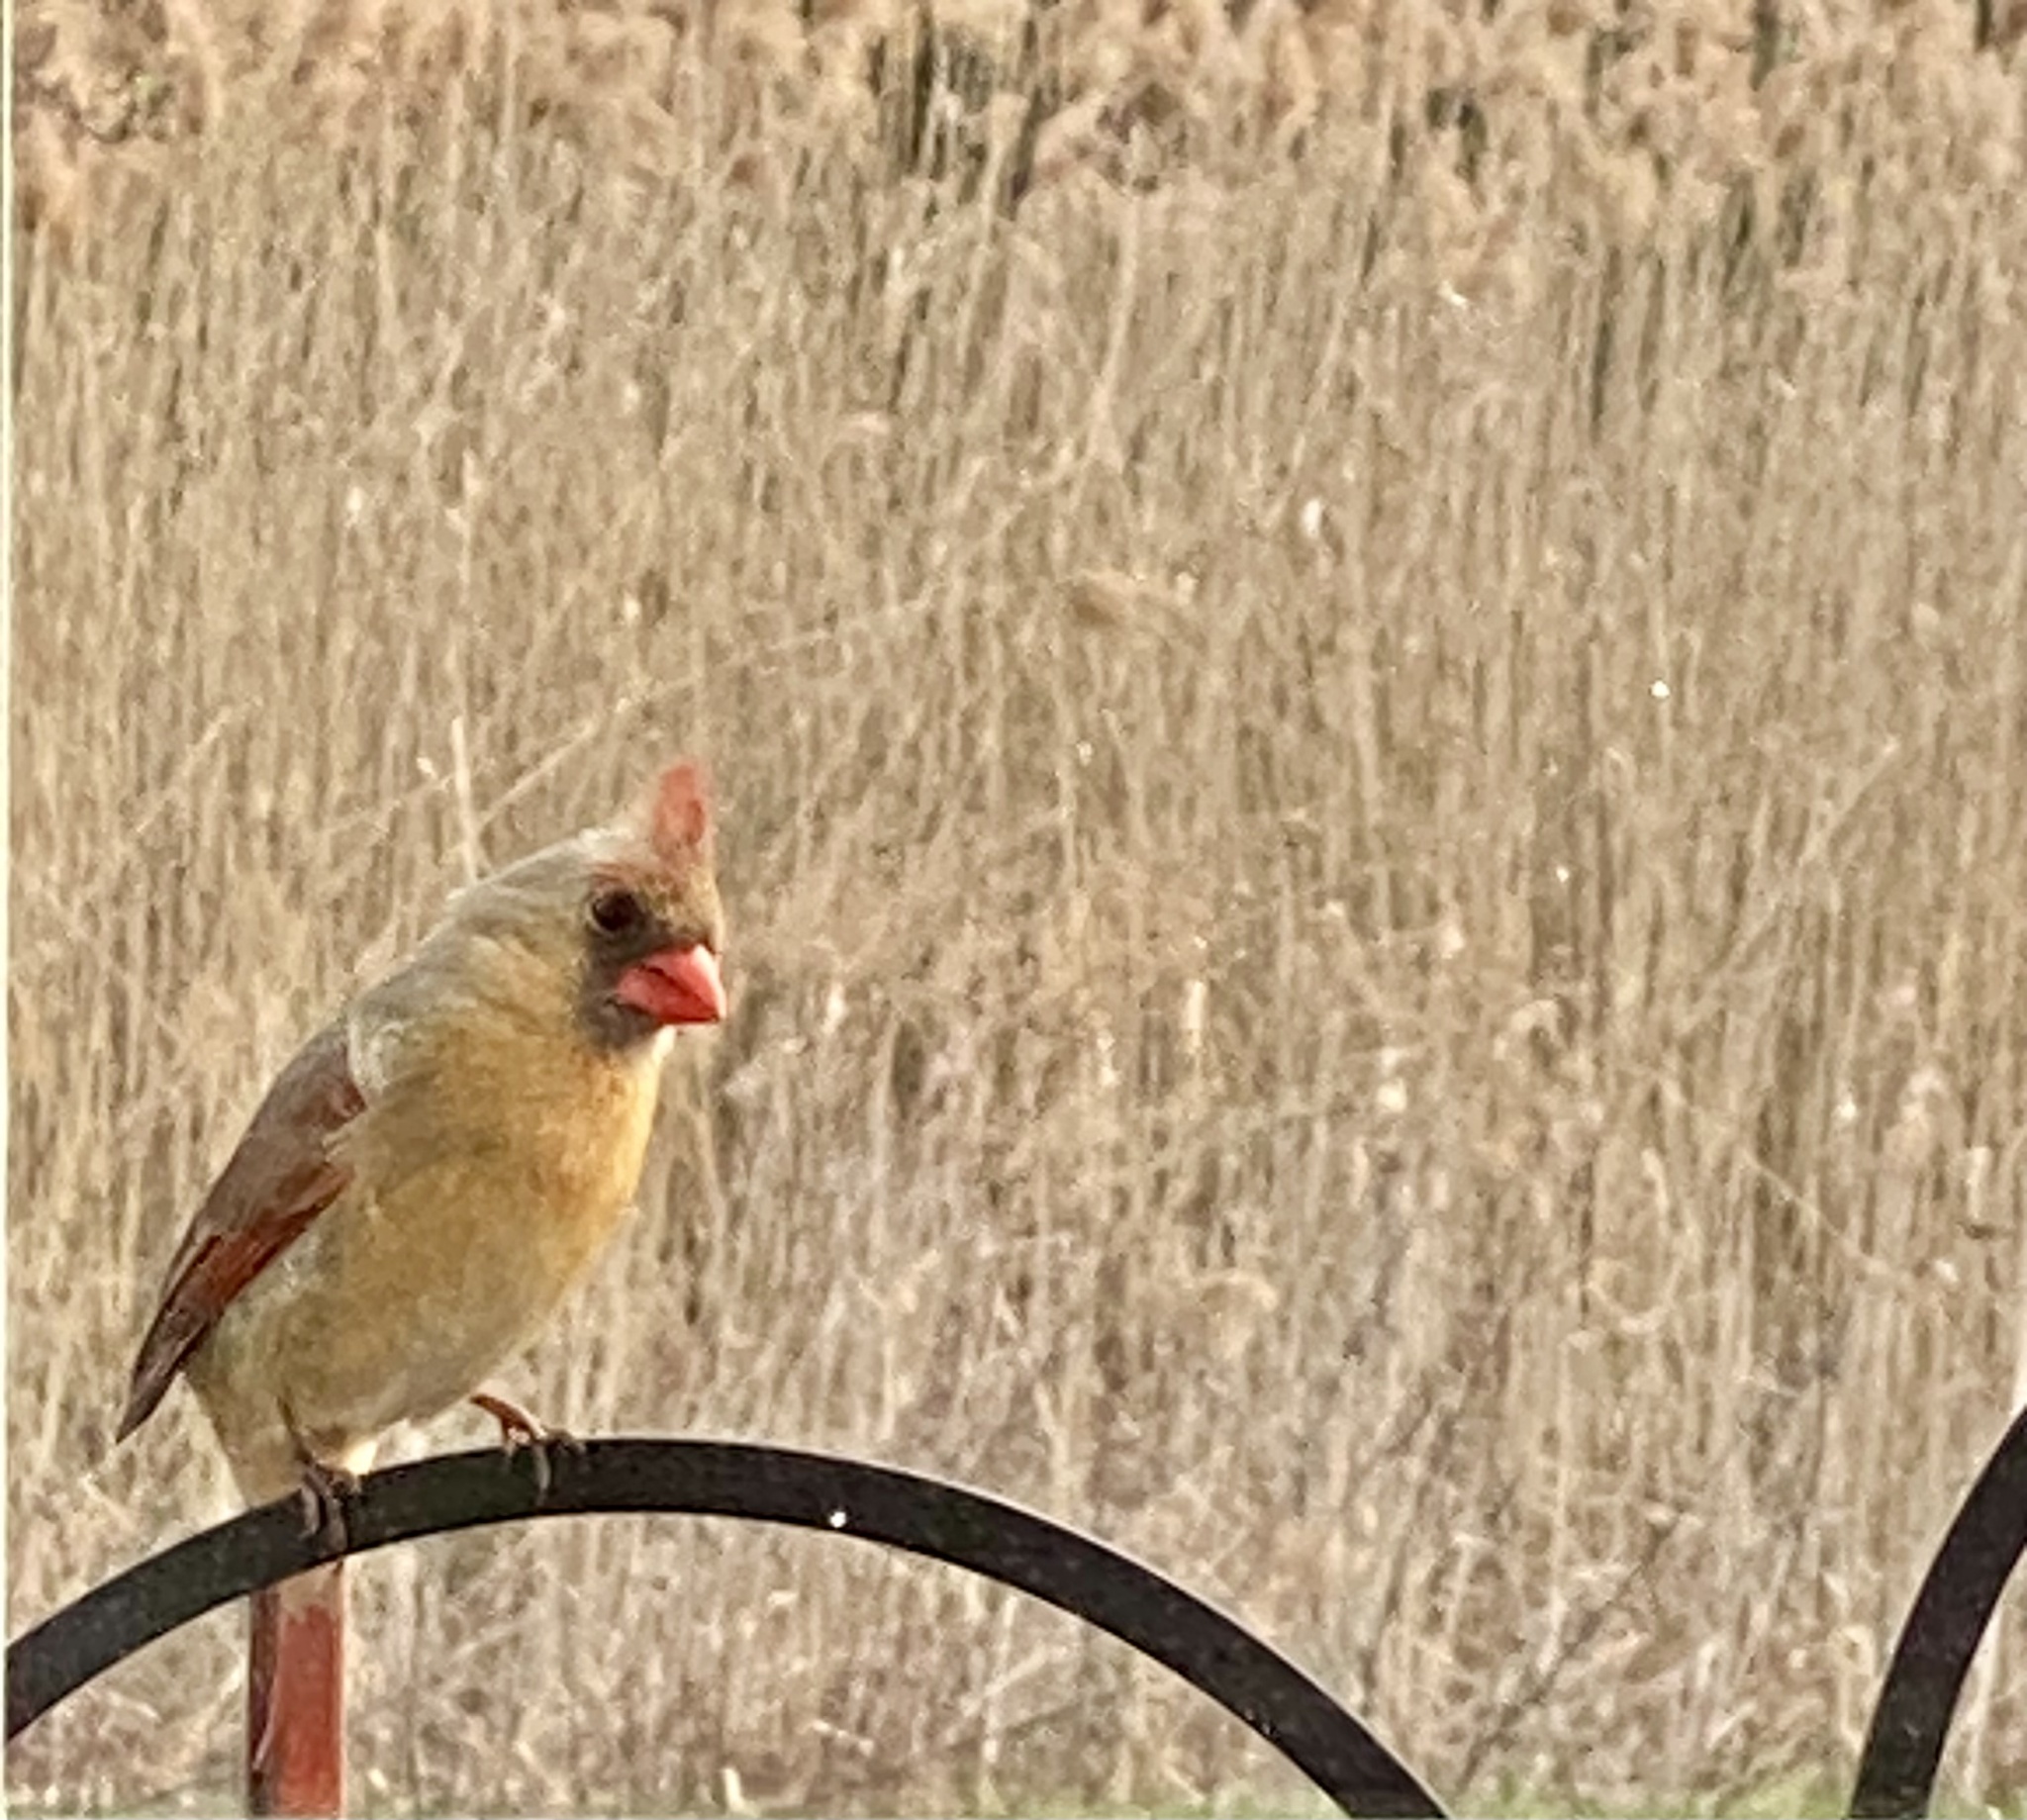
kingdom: Animalia
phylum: Chordata
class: Aves
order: Passeriformes
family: Cardinalidae
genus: Cardinalis
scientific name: Cardinalis cardinalis
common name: Northern cardinal
